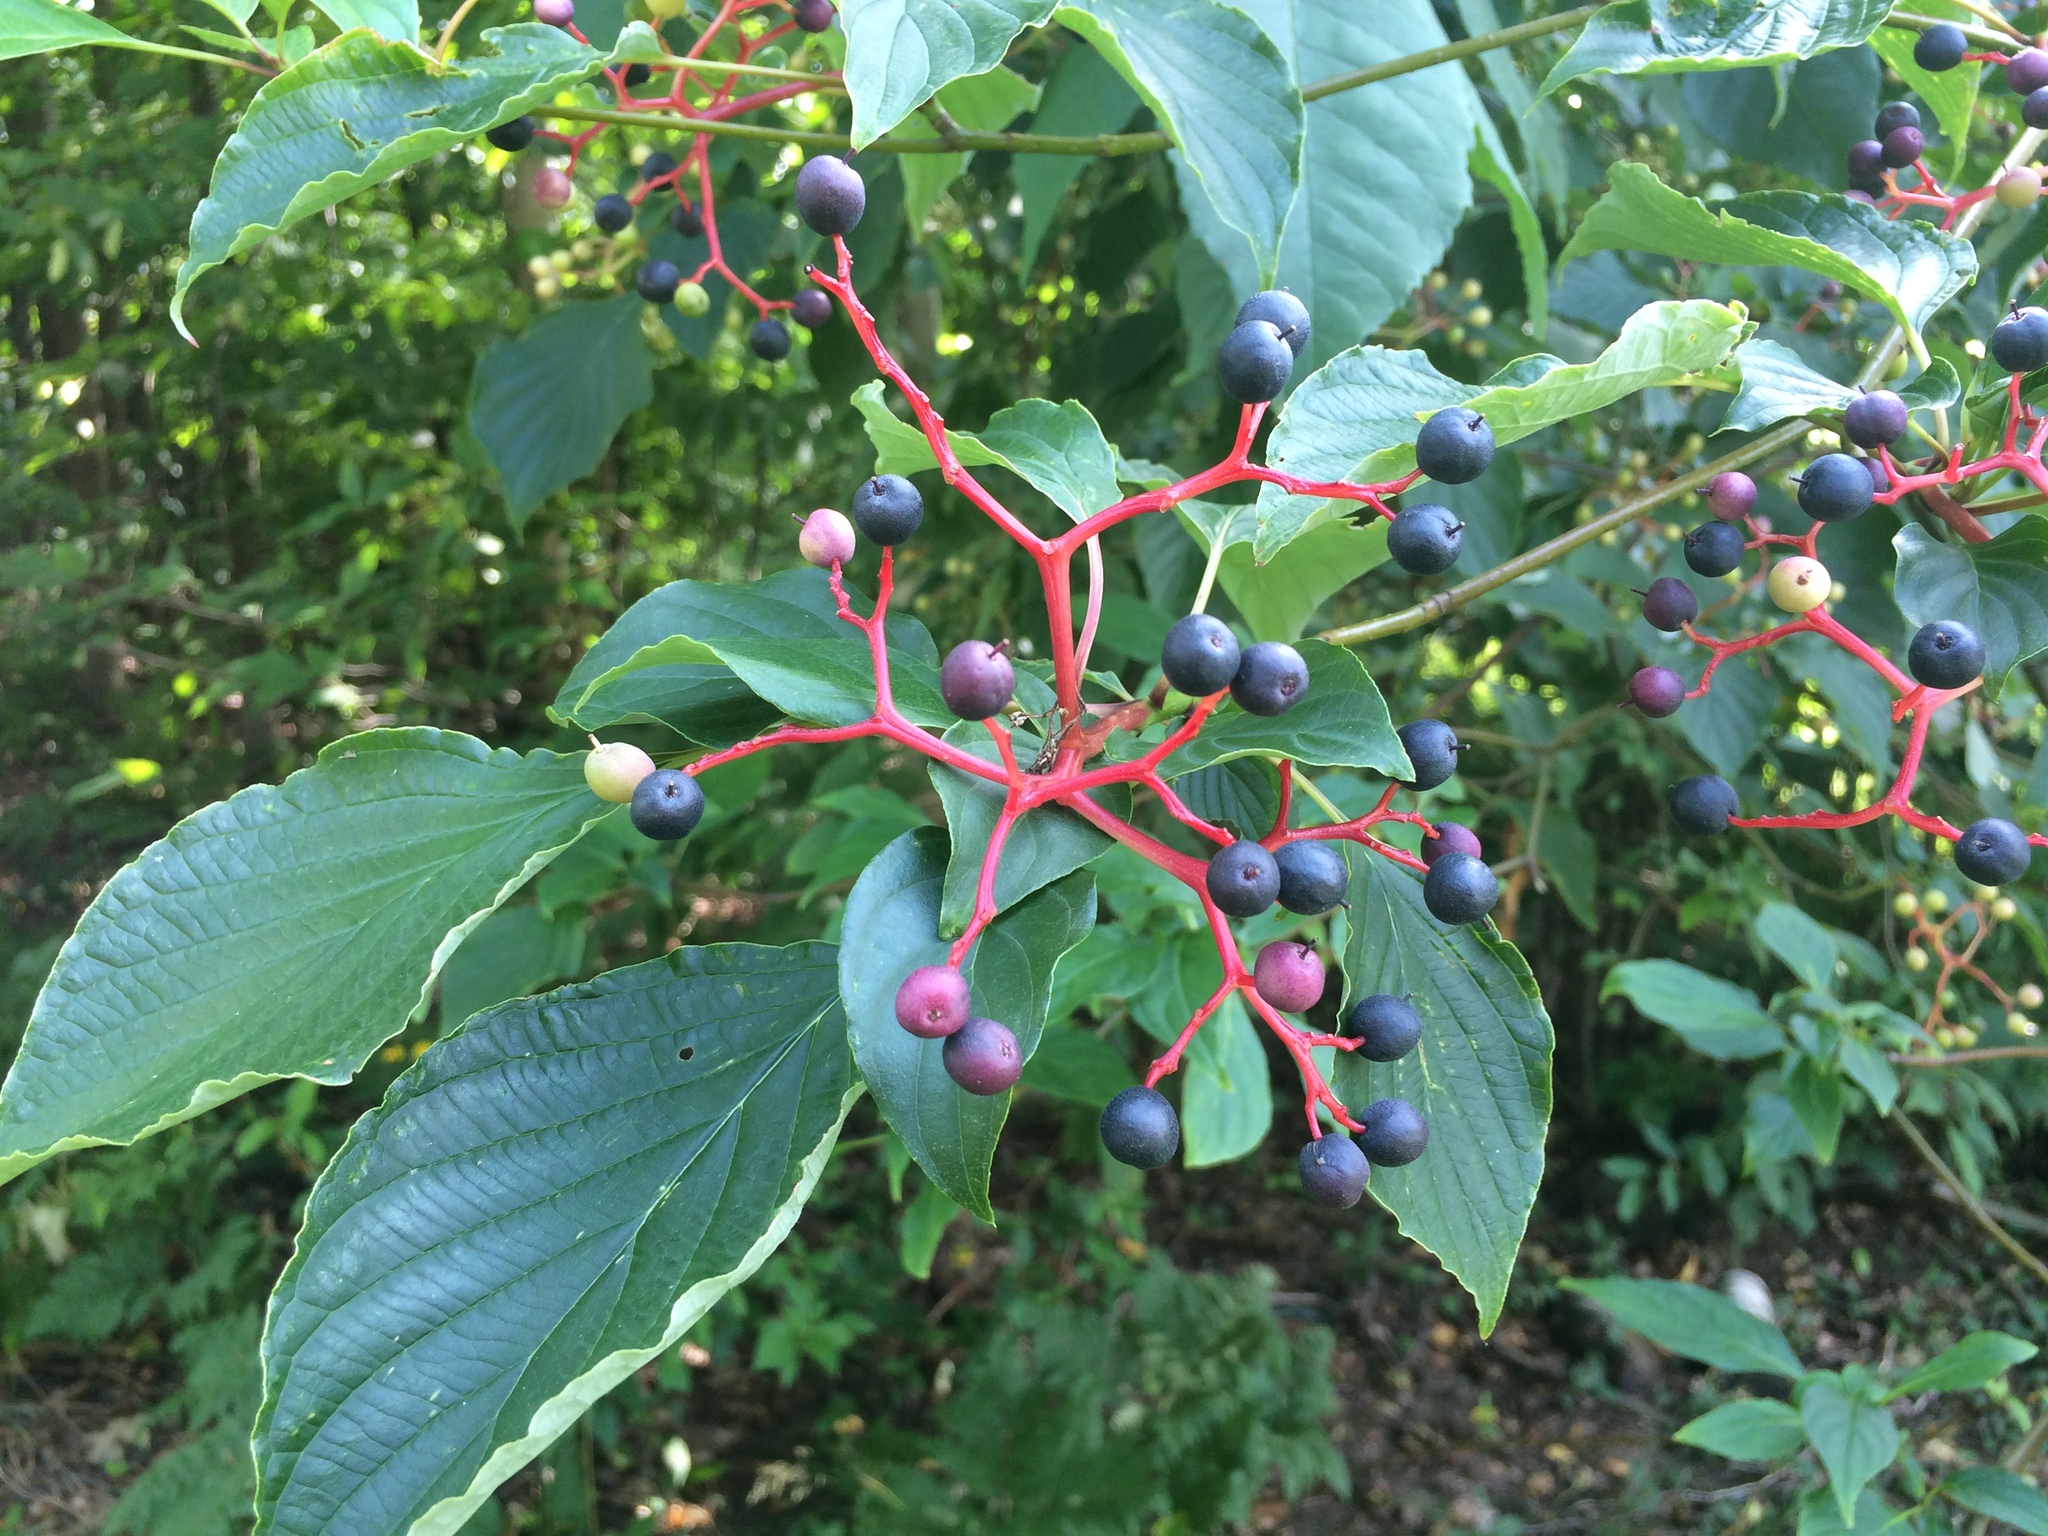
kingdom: Plantae
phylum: Tracheophyta
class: Magnoliopsida
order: Cornales
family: Cornaceae
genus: Cornus
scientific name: Cornus alternifolia
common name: Pagoda dogwood
